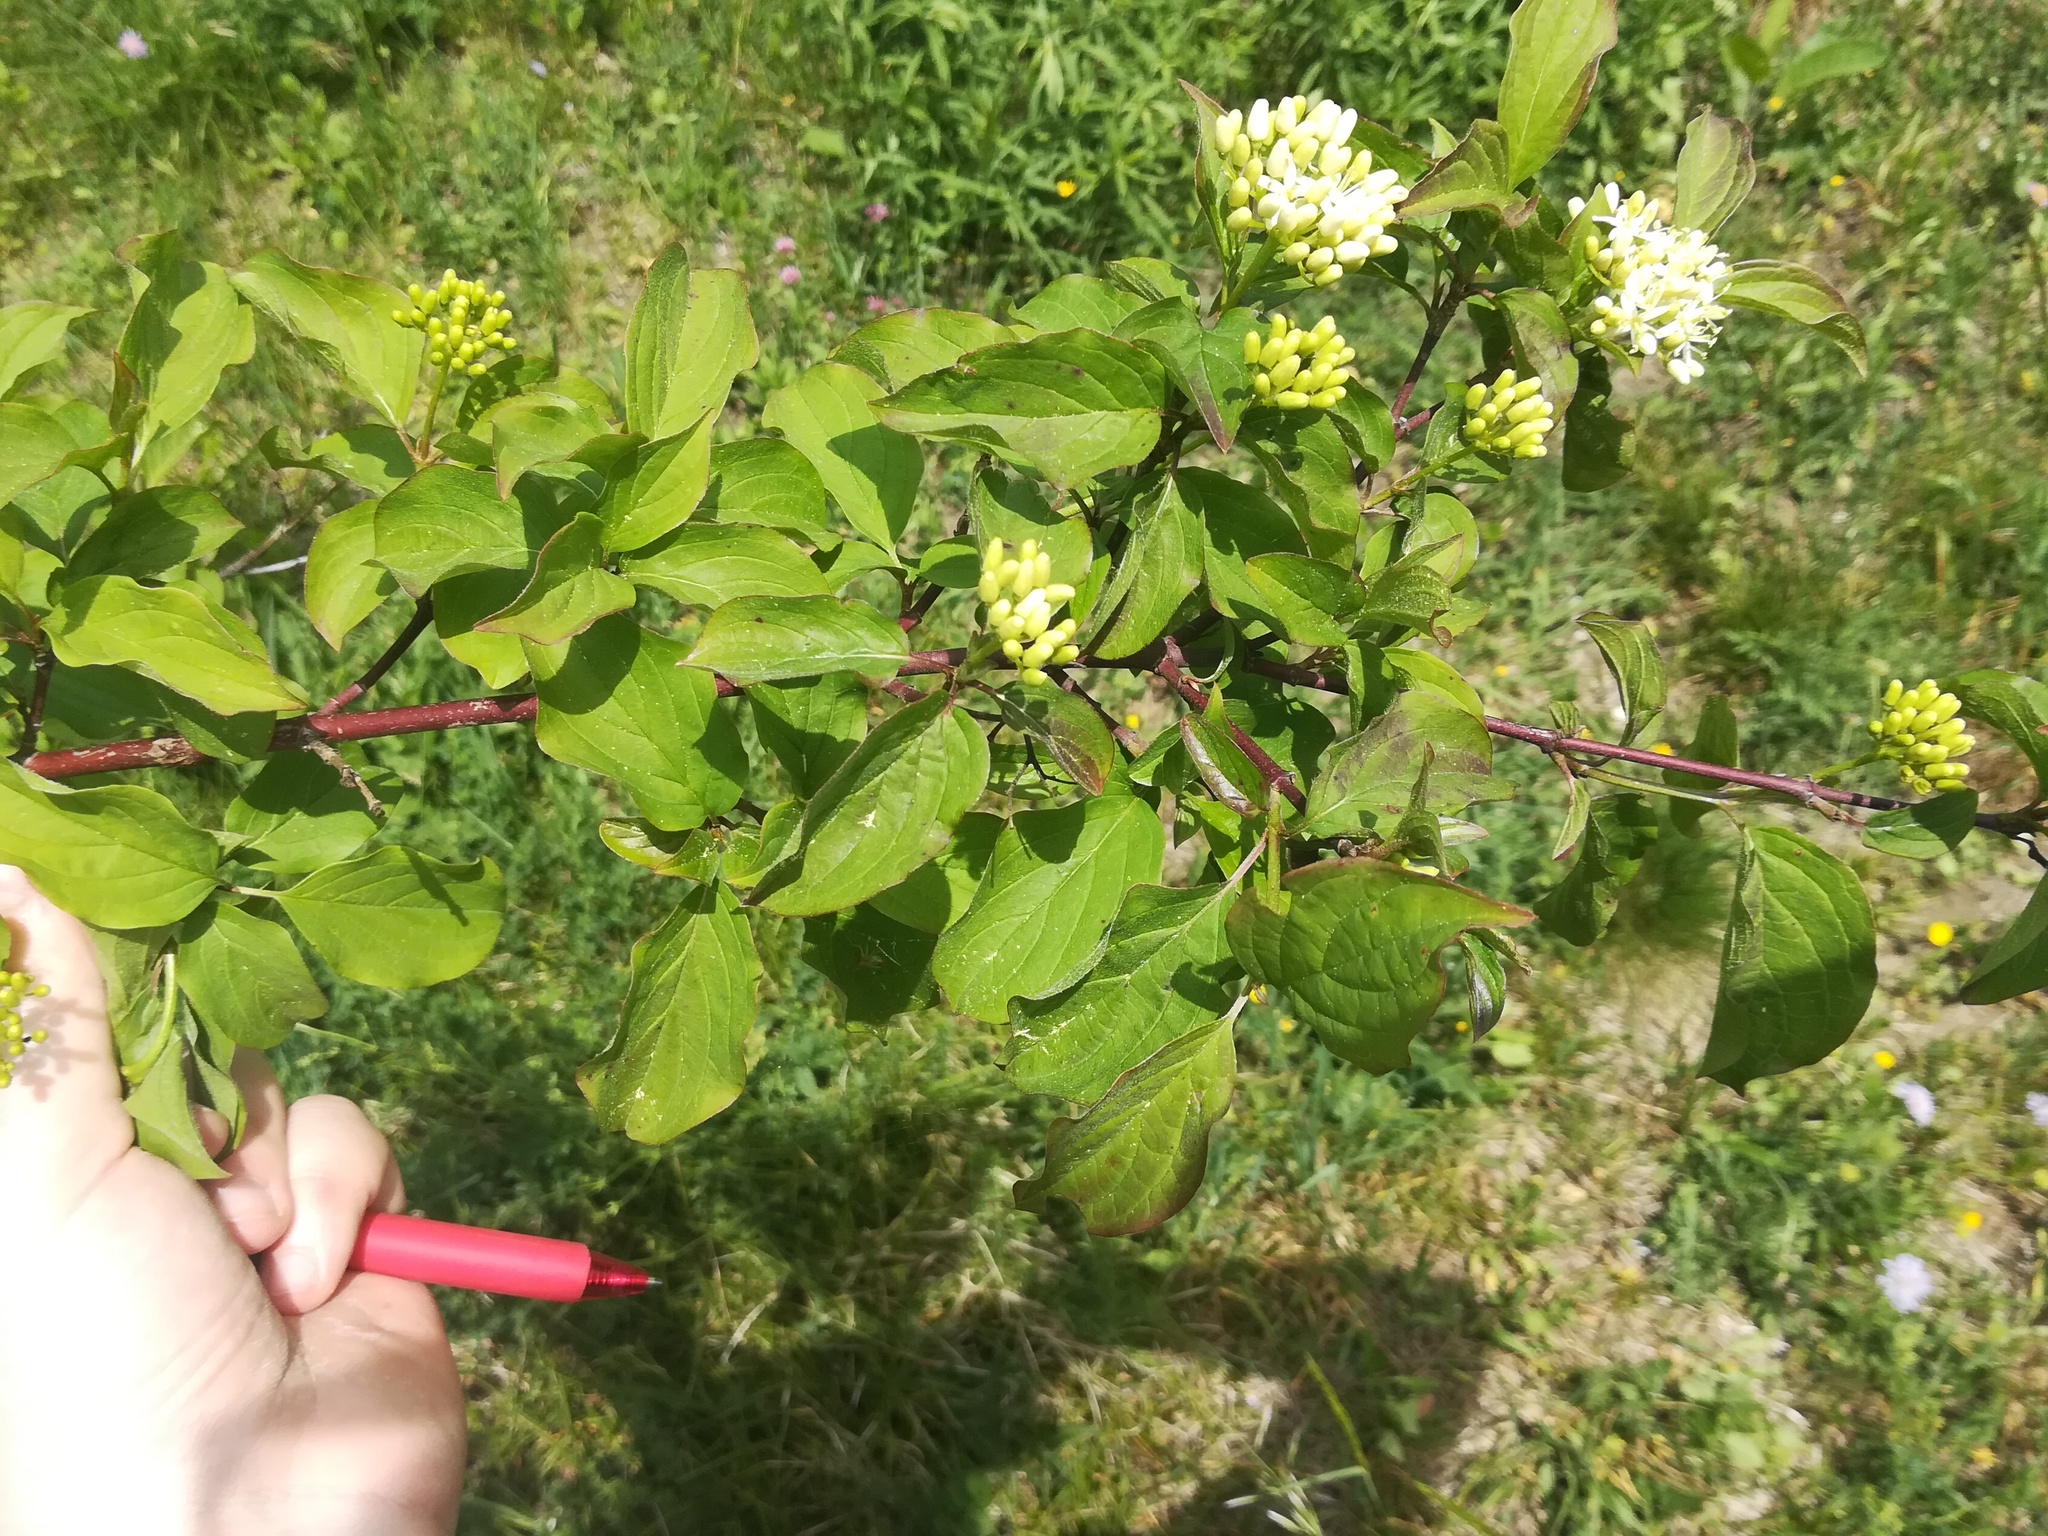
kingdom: Plantae
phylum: Tracheophyta
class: Magnoliopsida
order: Cornales
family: Cornaceae
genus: Cornus
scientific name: Cornus sanguinea
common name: Dogwood
